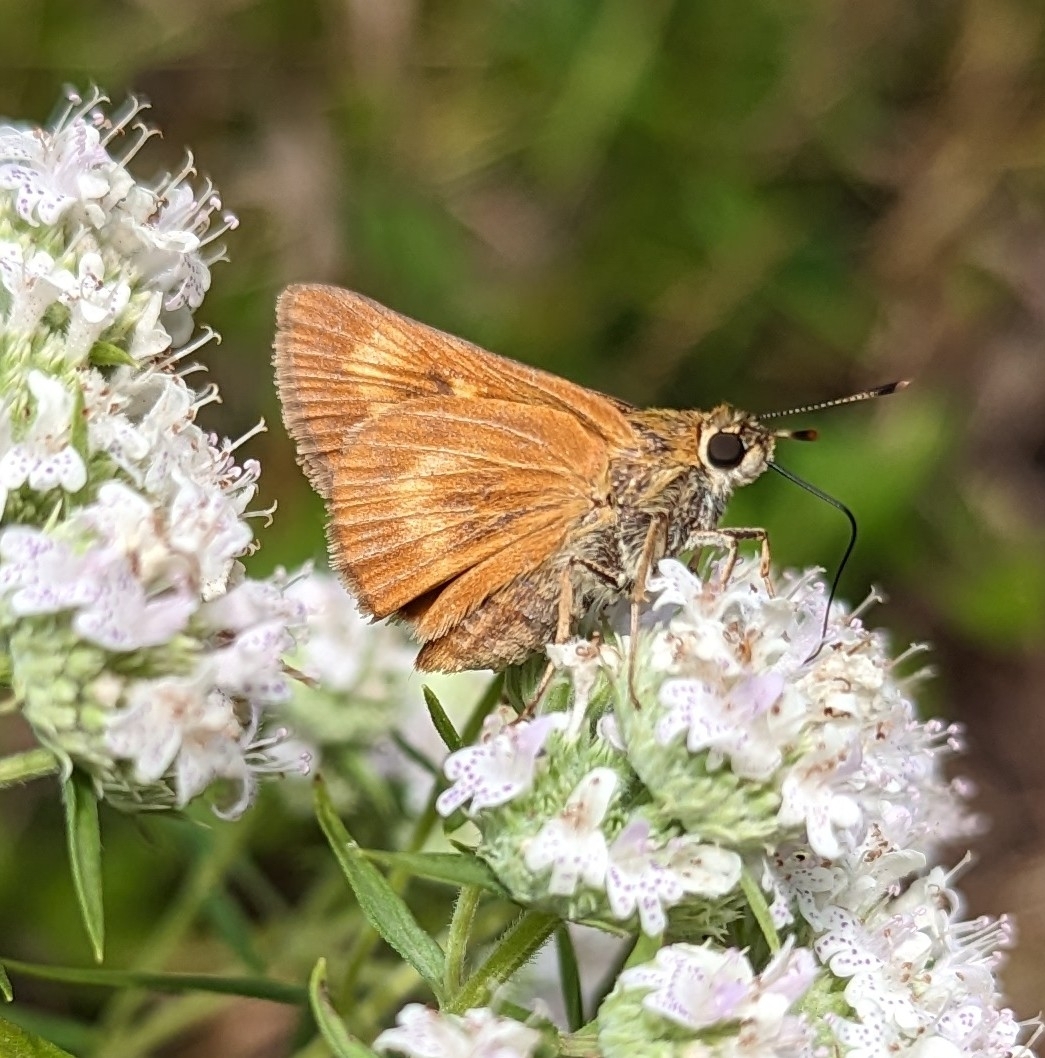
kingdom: Animalia
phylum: Arthropoda
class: Insecta
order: Lepidoptera
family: Hesperiidae
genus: Problema
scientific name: Problema byssus
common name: Byssus skipper
